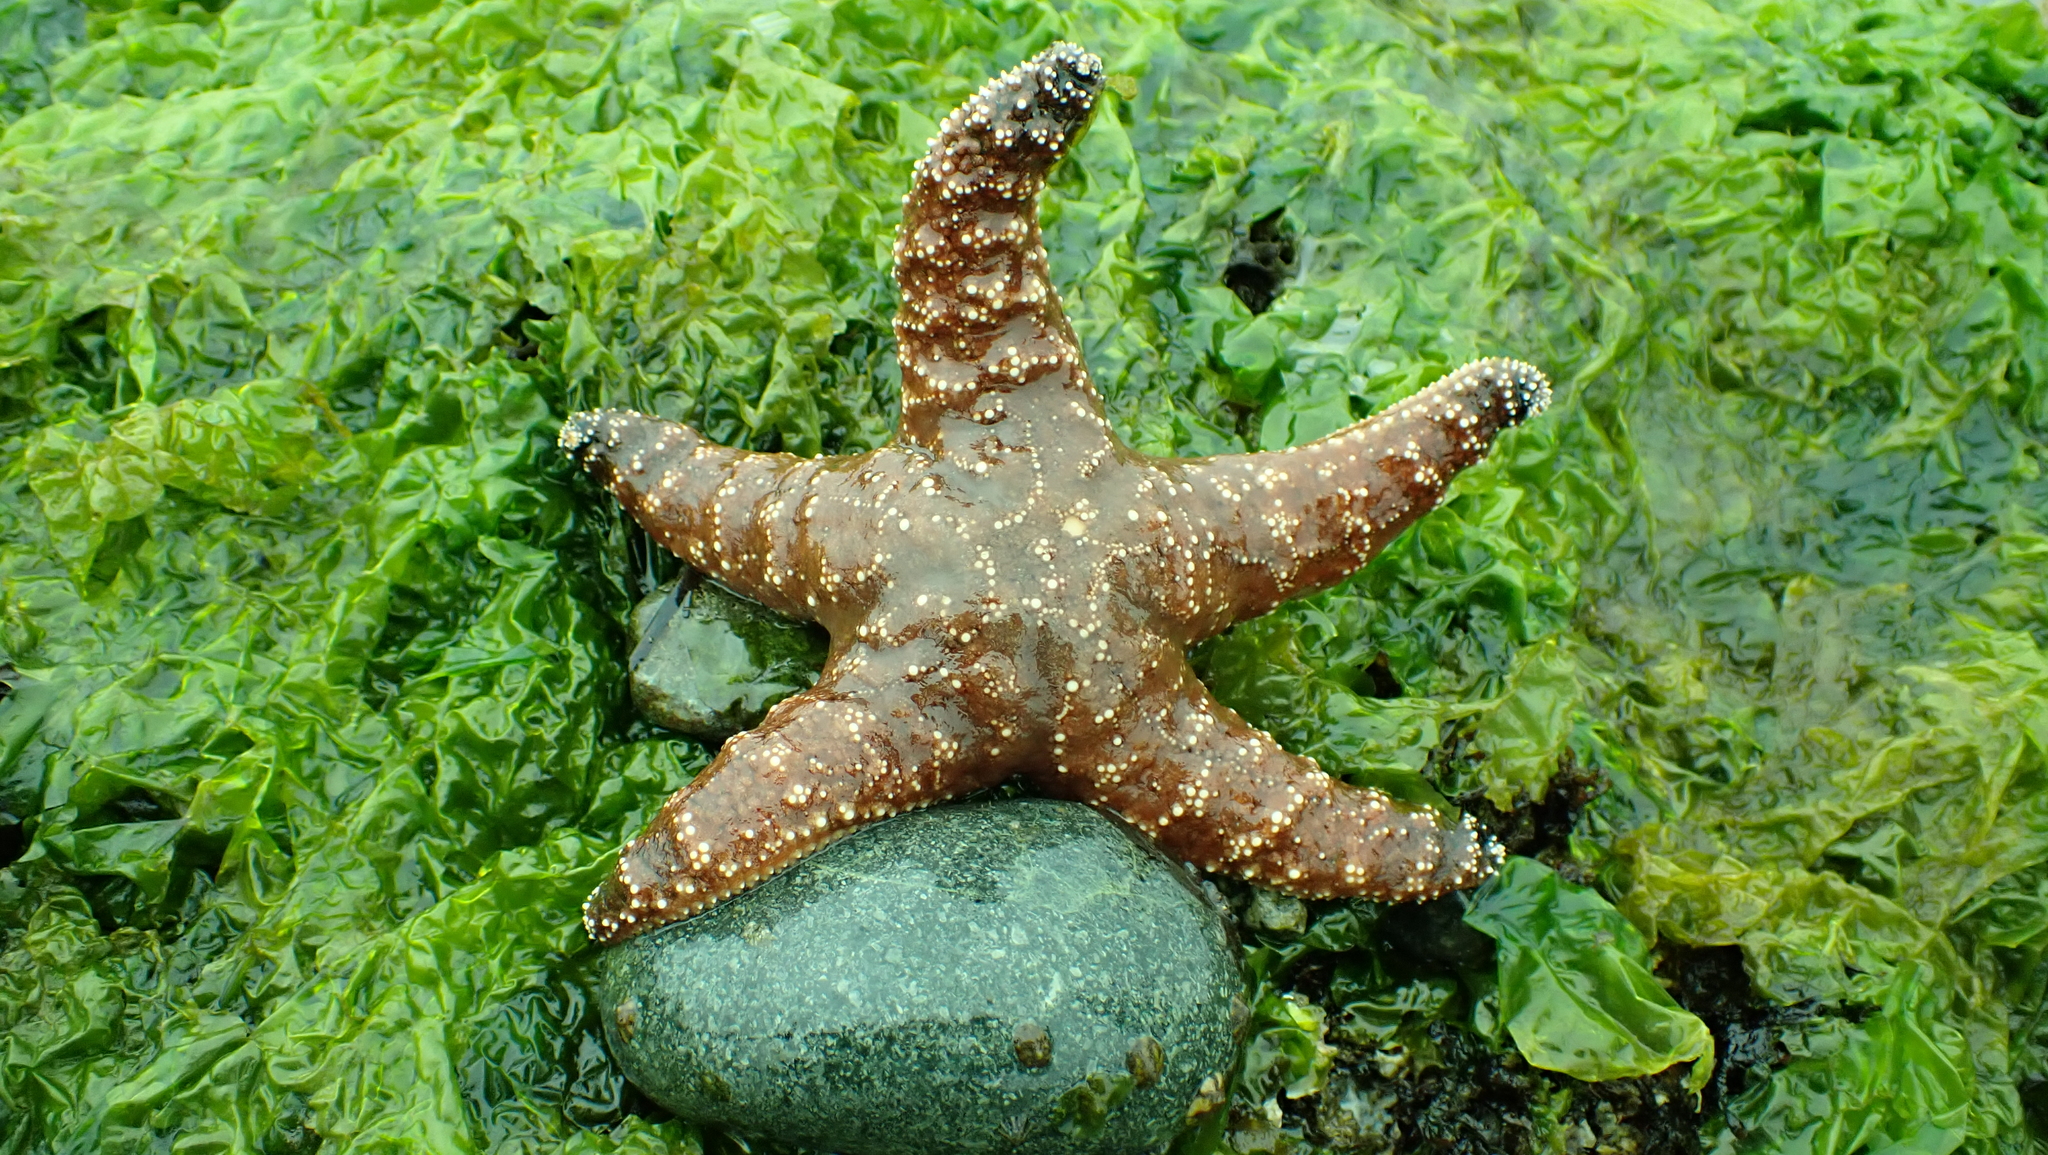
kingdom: Animalia
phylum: Echinodermata
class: Asteroidea
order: Forcipulatida
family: Asteriidae
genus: Pisaster
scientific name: Pisaster ochraceus
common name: Ochre stars
